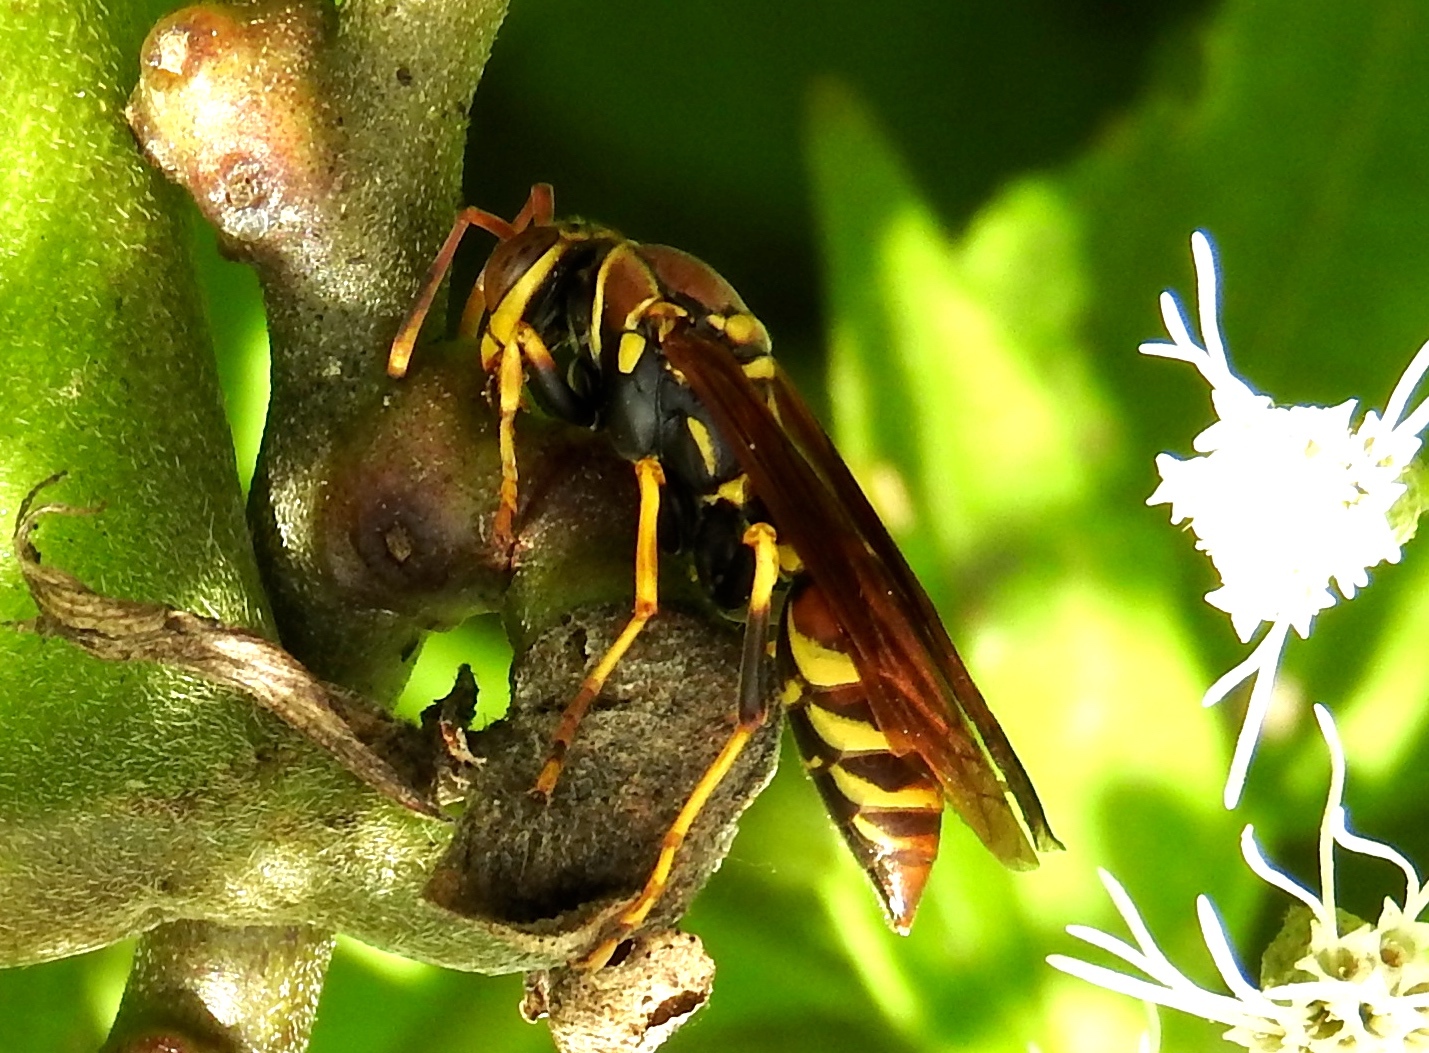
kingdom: Animalia
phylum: Arthropoda
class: Insecta
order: Hymenoptera
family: Eumenidae
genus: Polistes
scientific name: Polistes instabilis
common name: Unstable paper wasp
